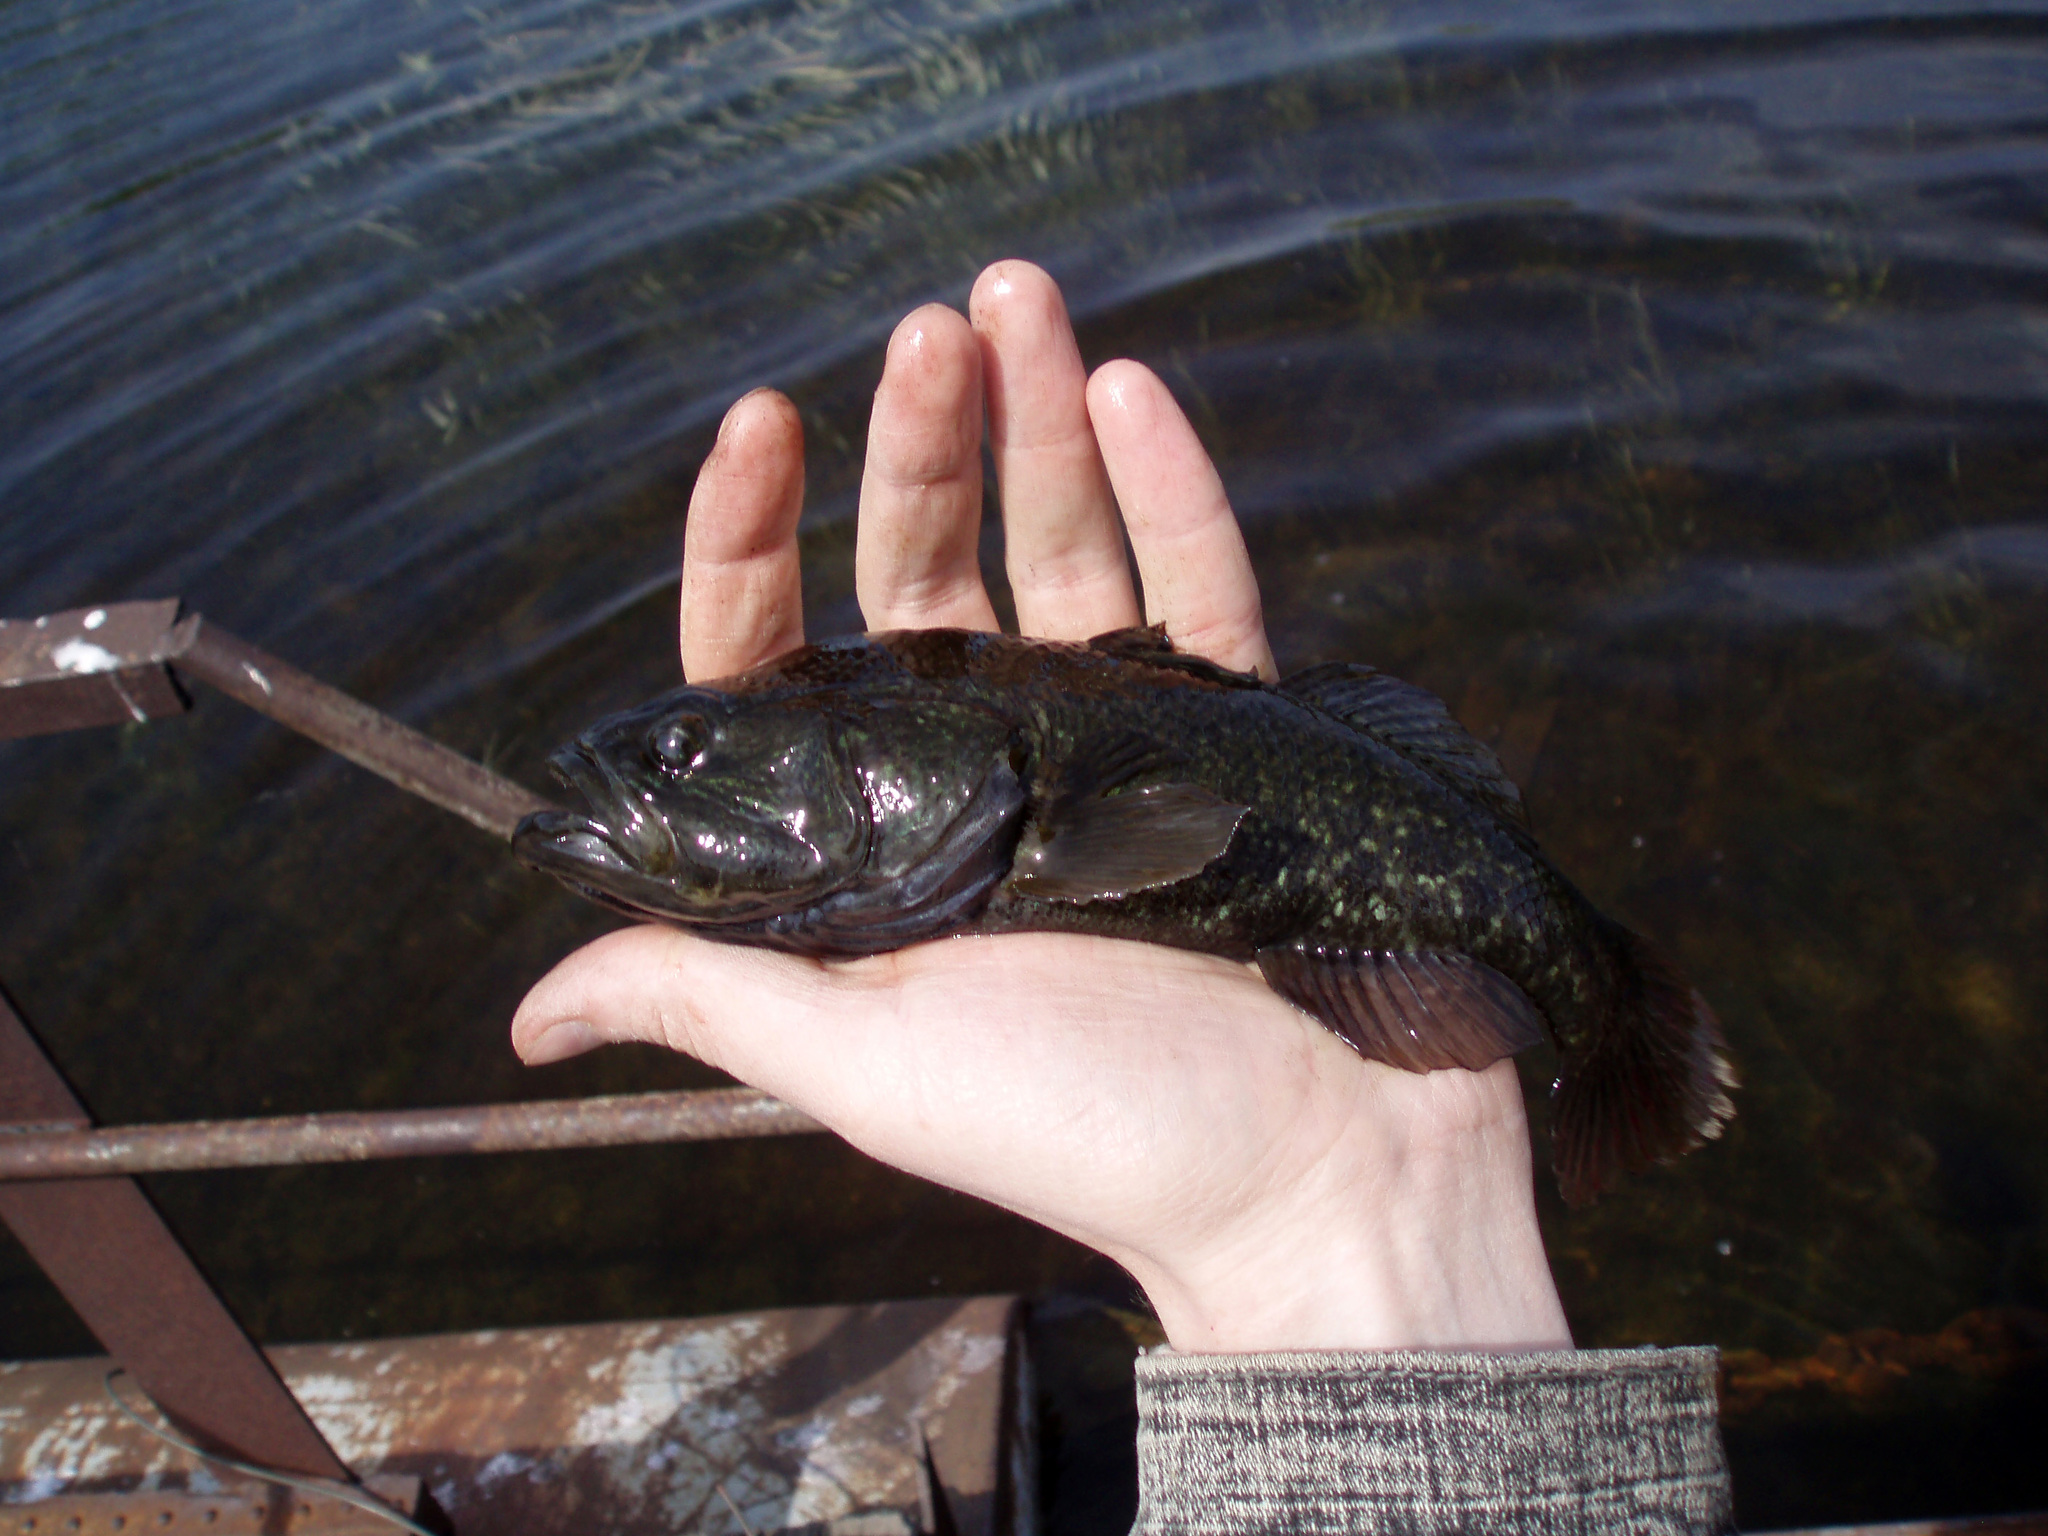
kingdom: Animalia
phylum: Chordata
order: Perciformes
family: Odontobutidae
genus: Perccottus
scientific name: Perccottus glenii
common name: Amur sleeper
